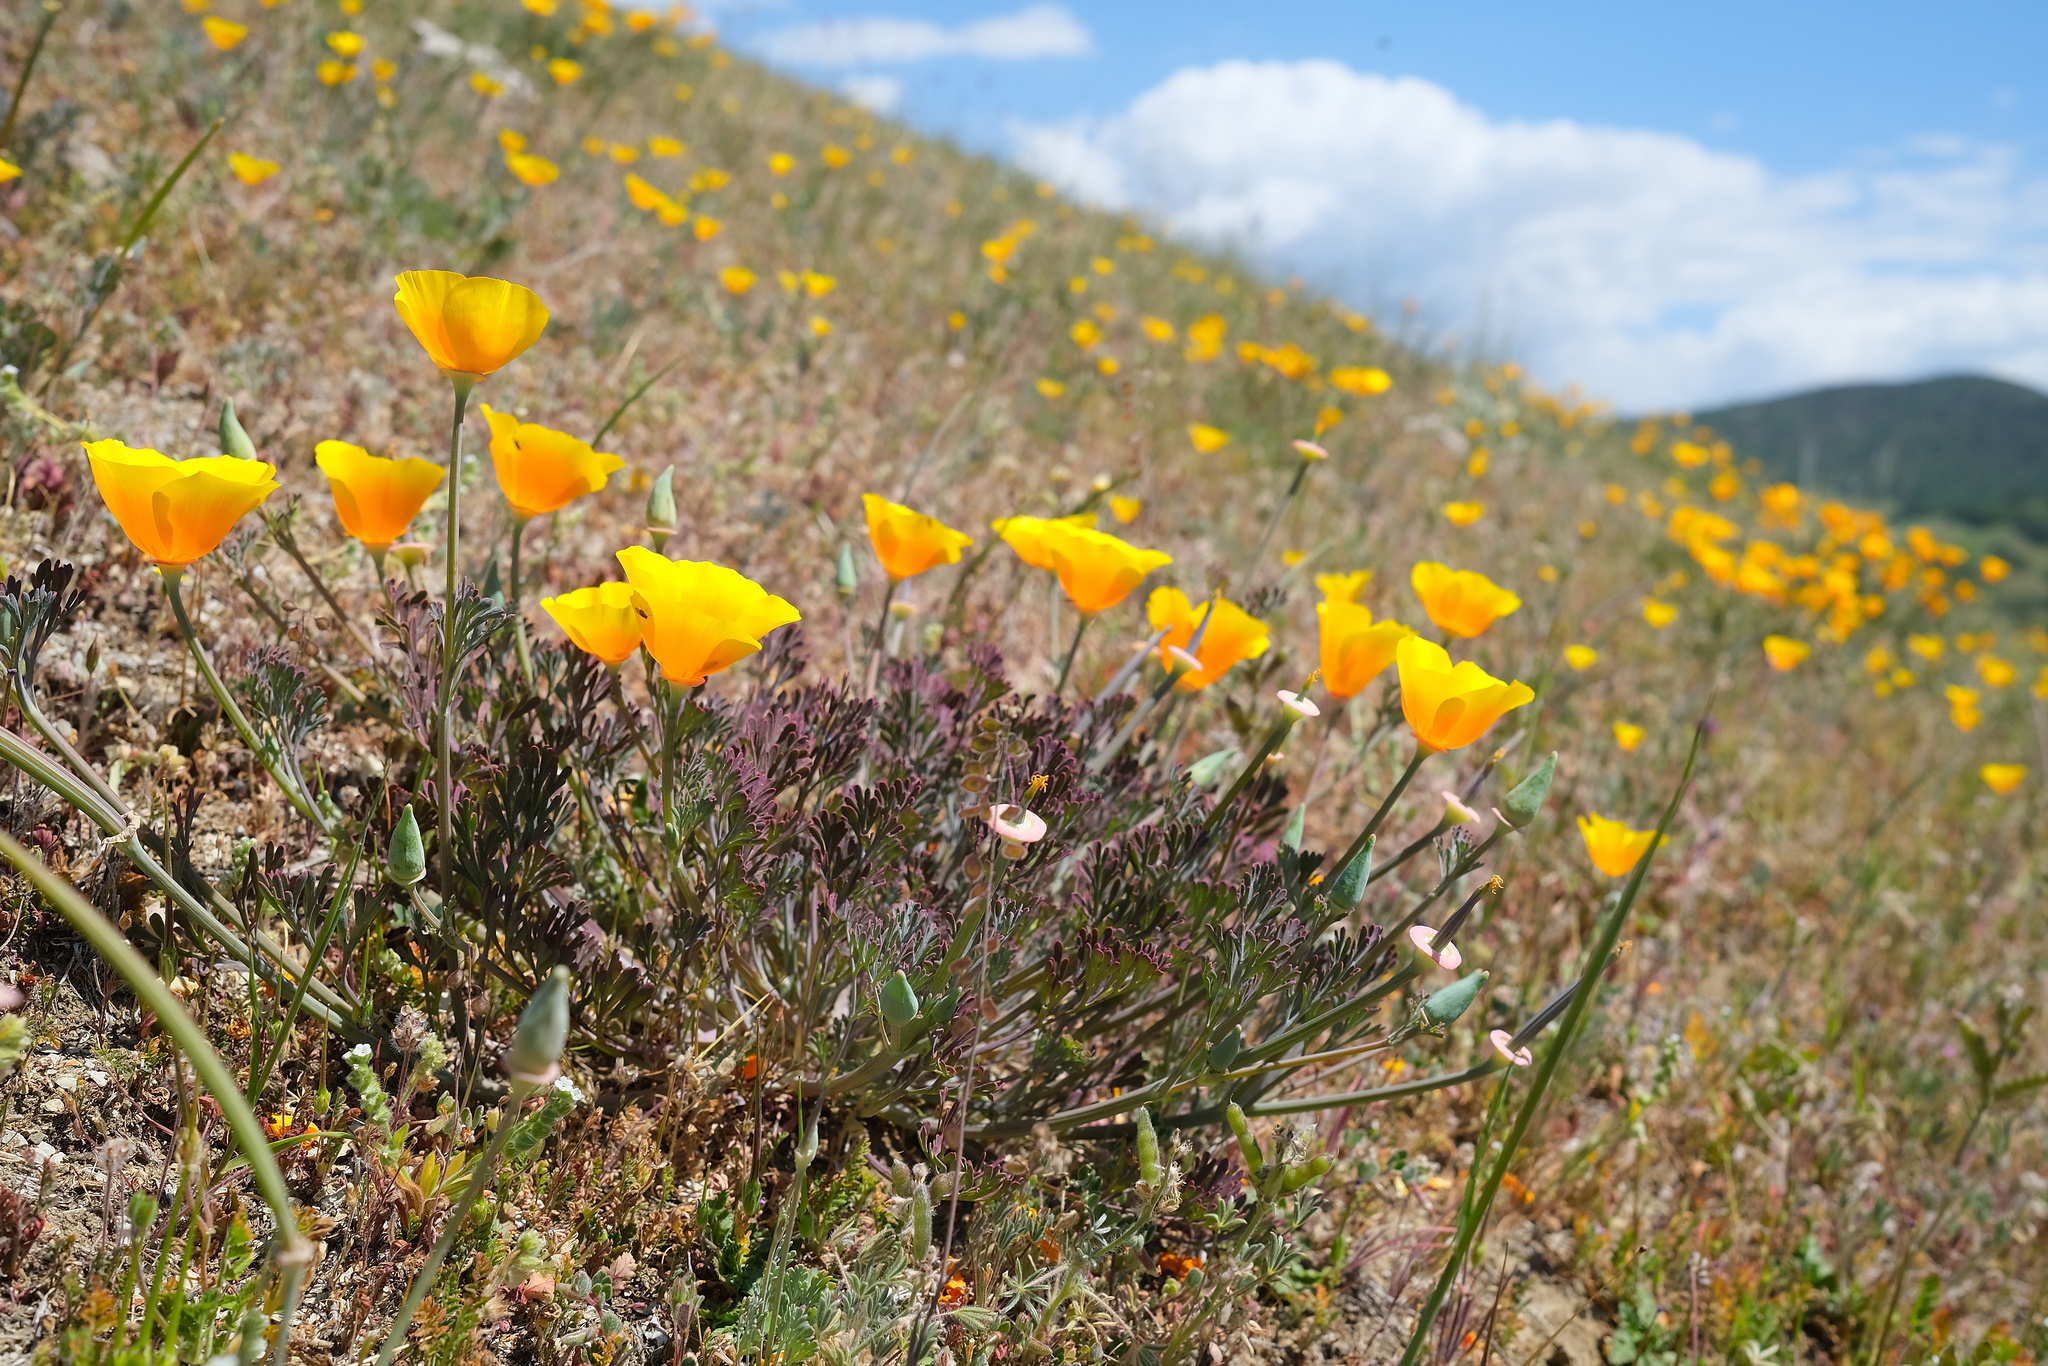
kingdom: Plantae
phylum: Tracheophyta
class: Magnoliopsida
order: Ranunculales
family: Papaveraceae
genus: Eschscholzia
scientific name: Eschscholzia californica
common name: California poppy
